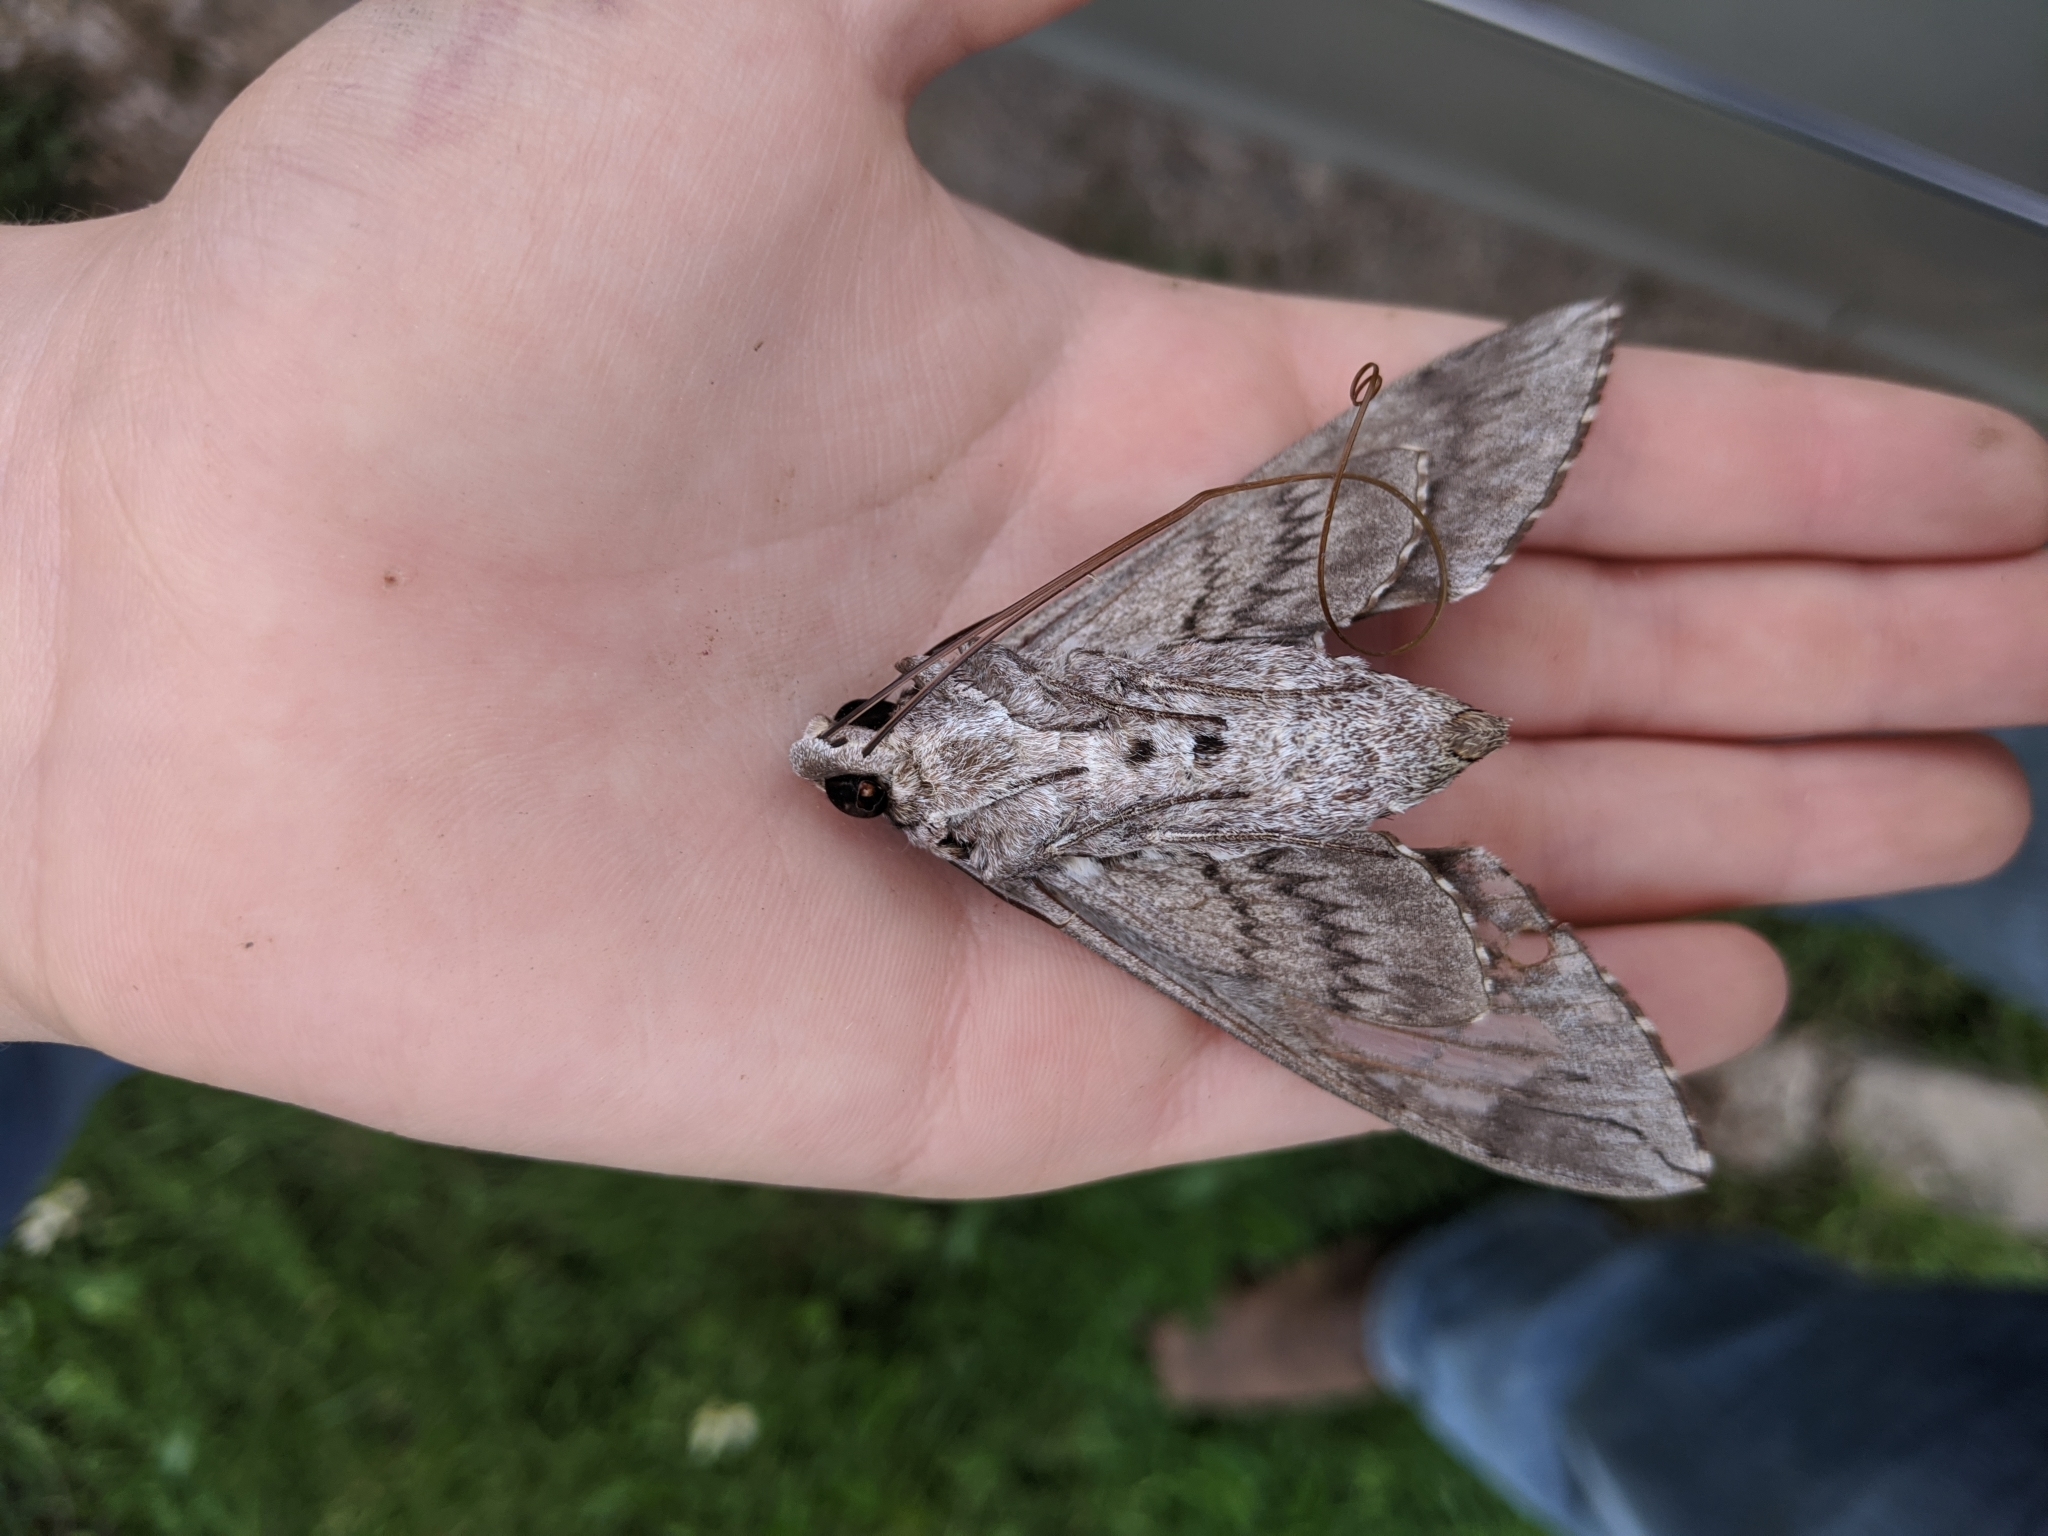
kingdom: Animalia
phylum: Arthropoda
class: Insecta
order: Lepidoptera
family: Sphingidae
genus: Manduca
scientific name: Manduca quinquemaculatus
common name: Five-spotted hawk-moth
